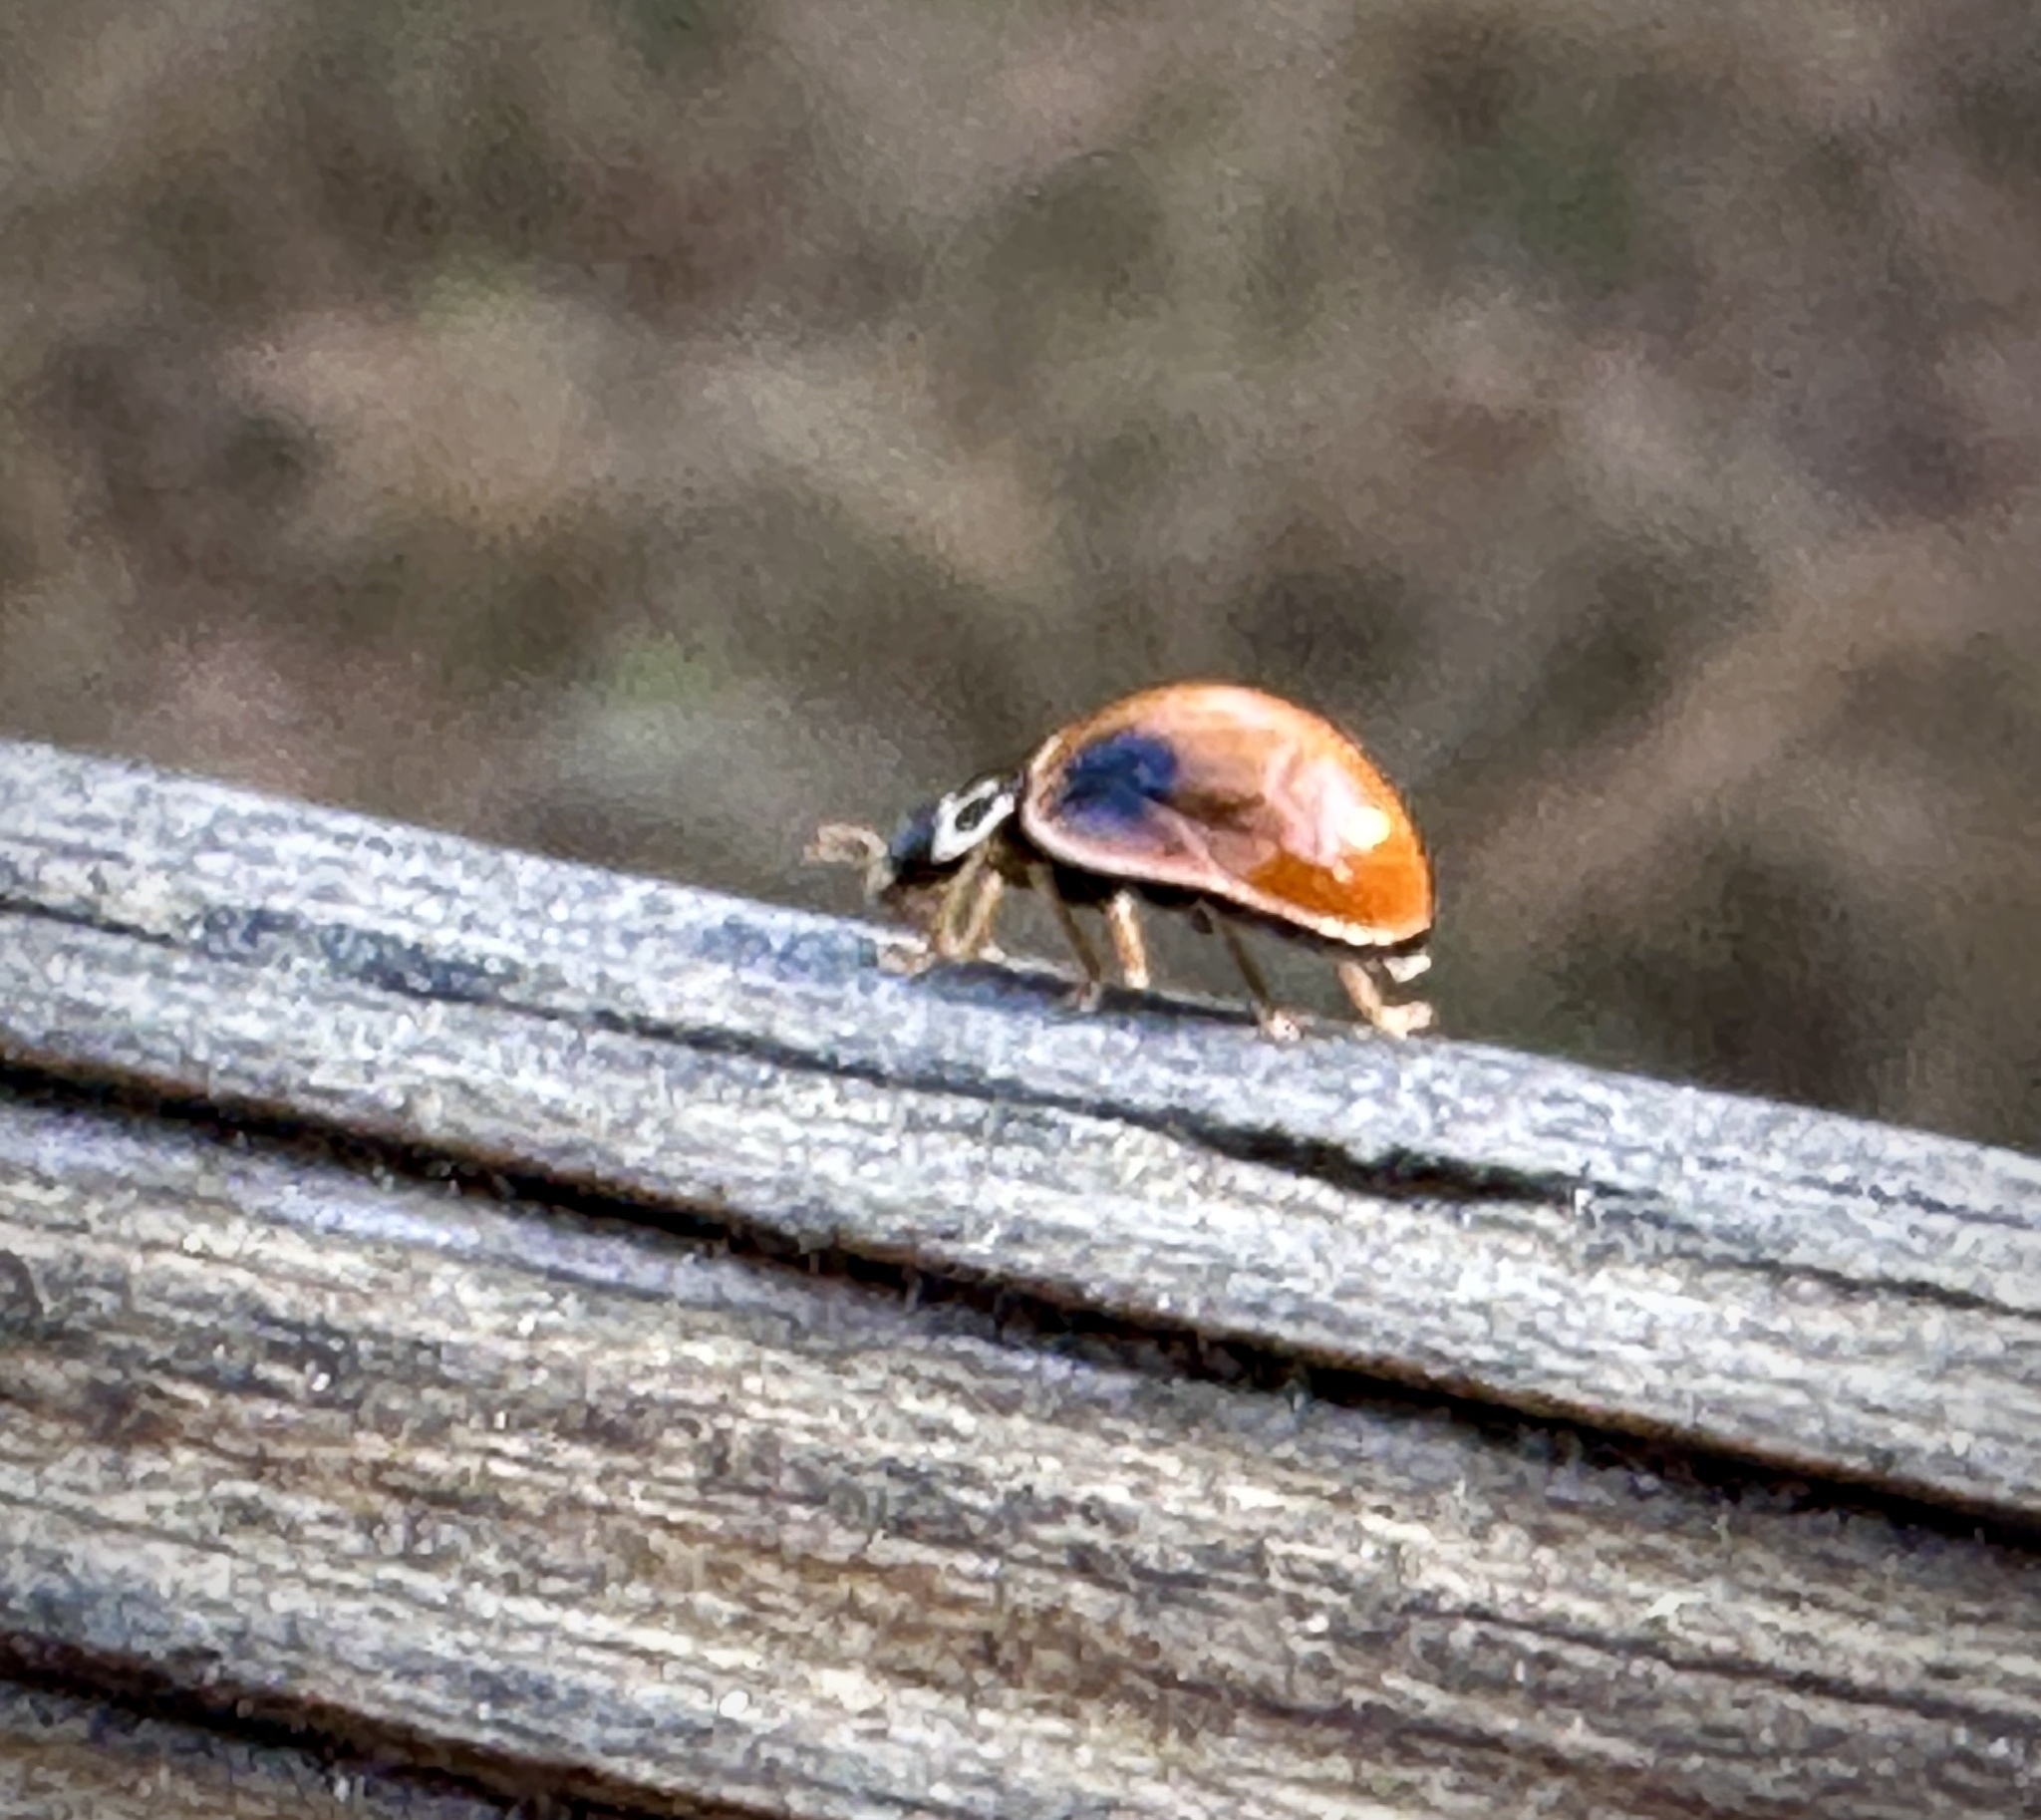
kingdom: Animalia
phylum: Arthropoda
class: Insecta
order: Coleoptera
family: Coccinellidae
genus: Cycloneda
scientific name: Cycloneda munda
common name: Polished lady beetle
